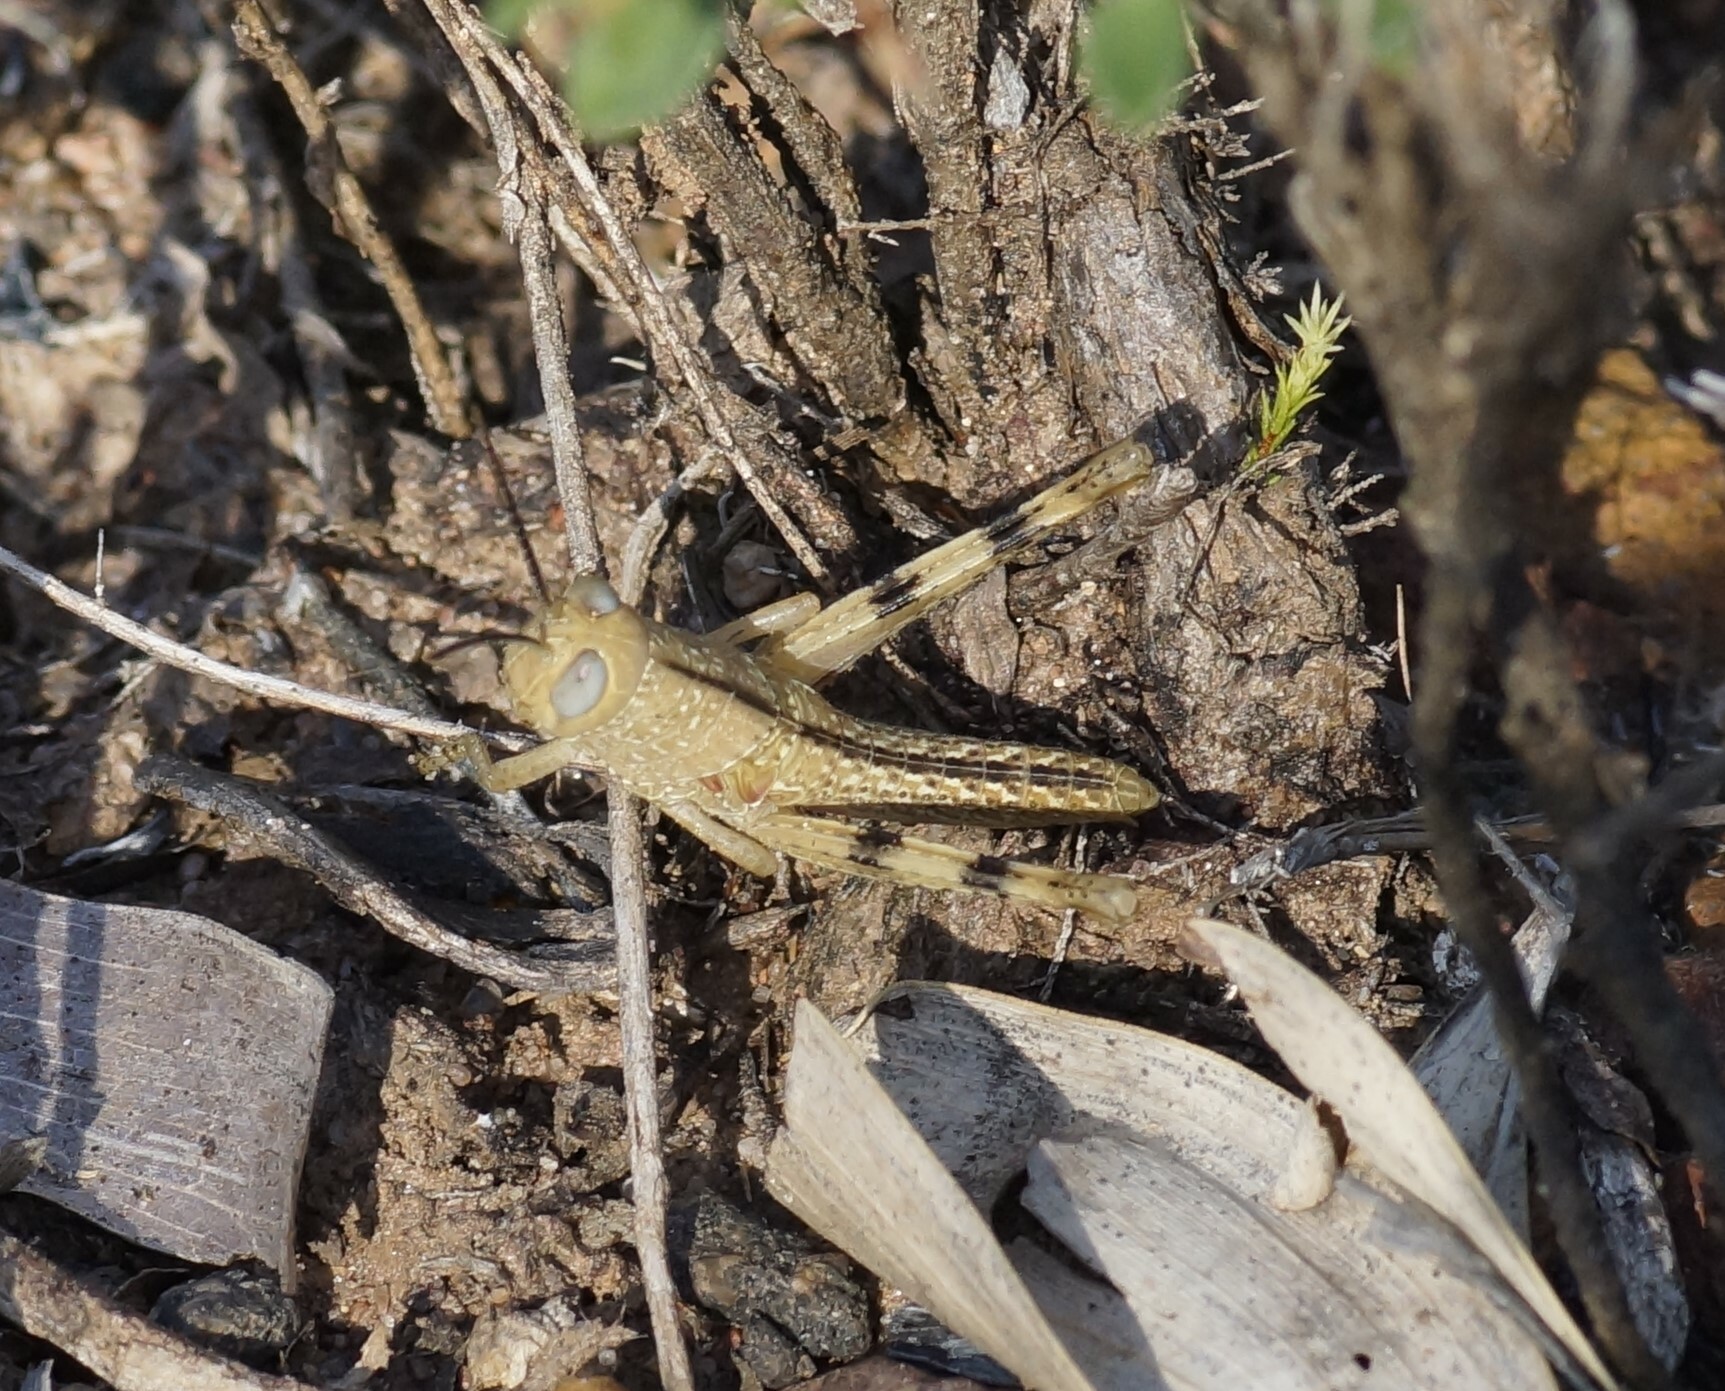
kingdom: Animalia
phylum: Arthropoda
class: Insecta
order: Orthoptera
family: Acrididae
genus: Valanga
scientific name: Valanga irregularis
